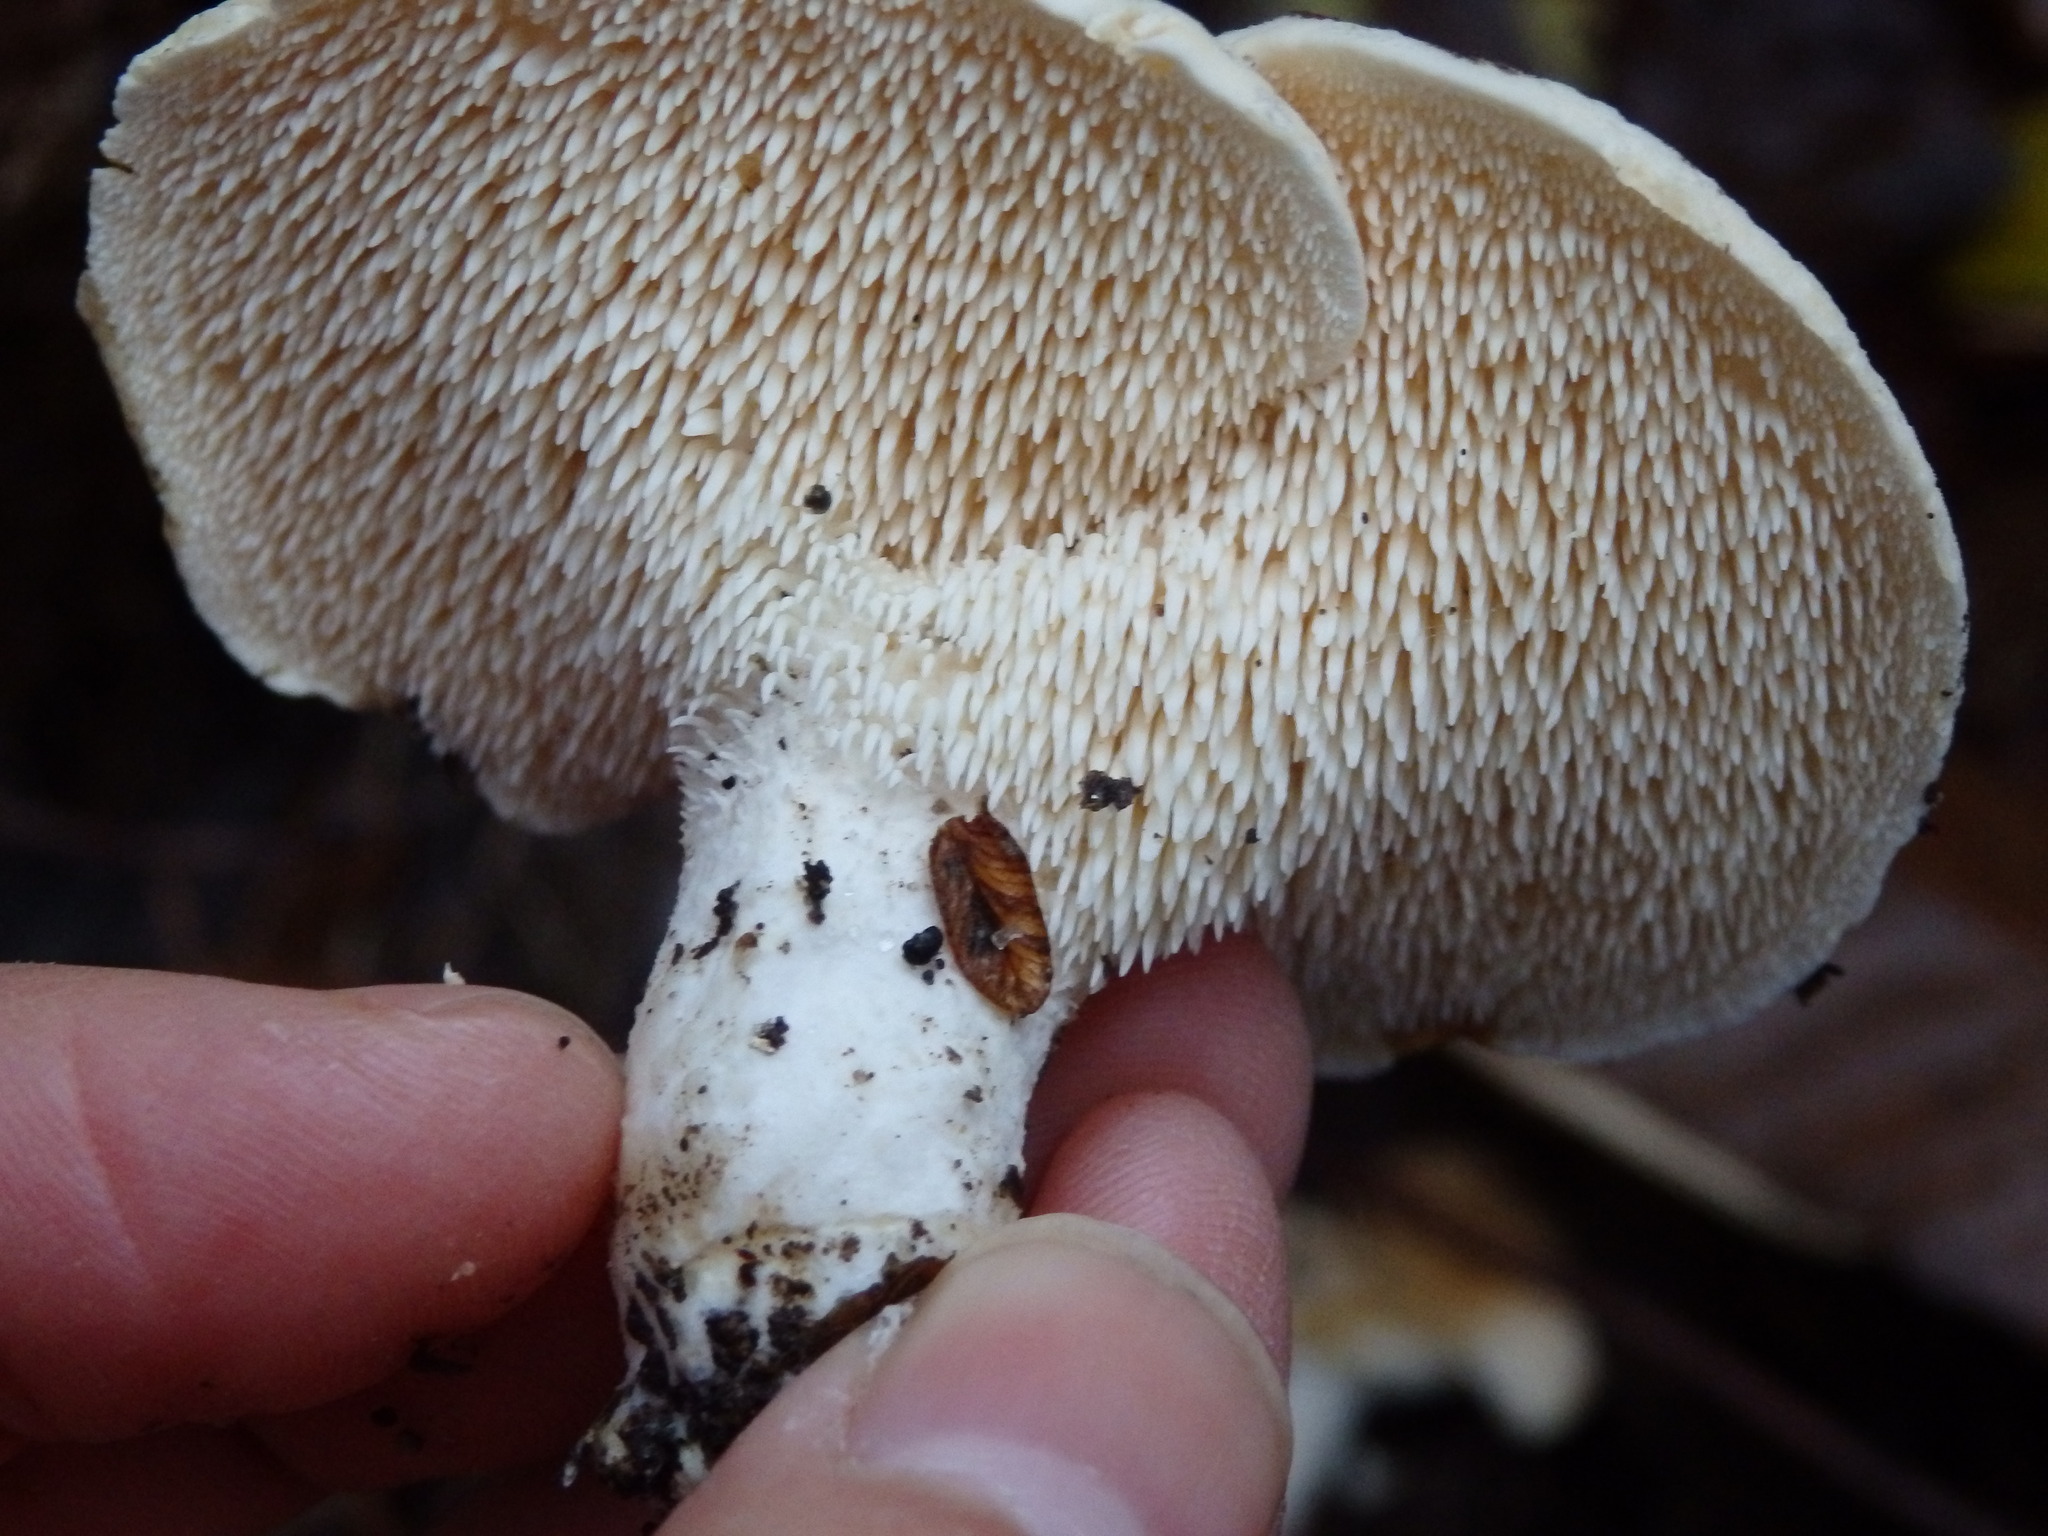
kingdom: Fungi
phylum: Basidiomycota
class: Agaricomycetes
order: Cantharellales
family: Hydnaceae
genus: Hydnum
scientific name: Hydnum repandum
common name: Wood hedgehog
